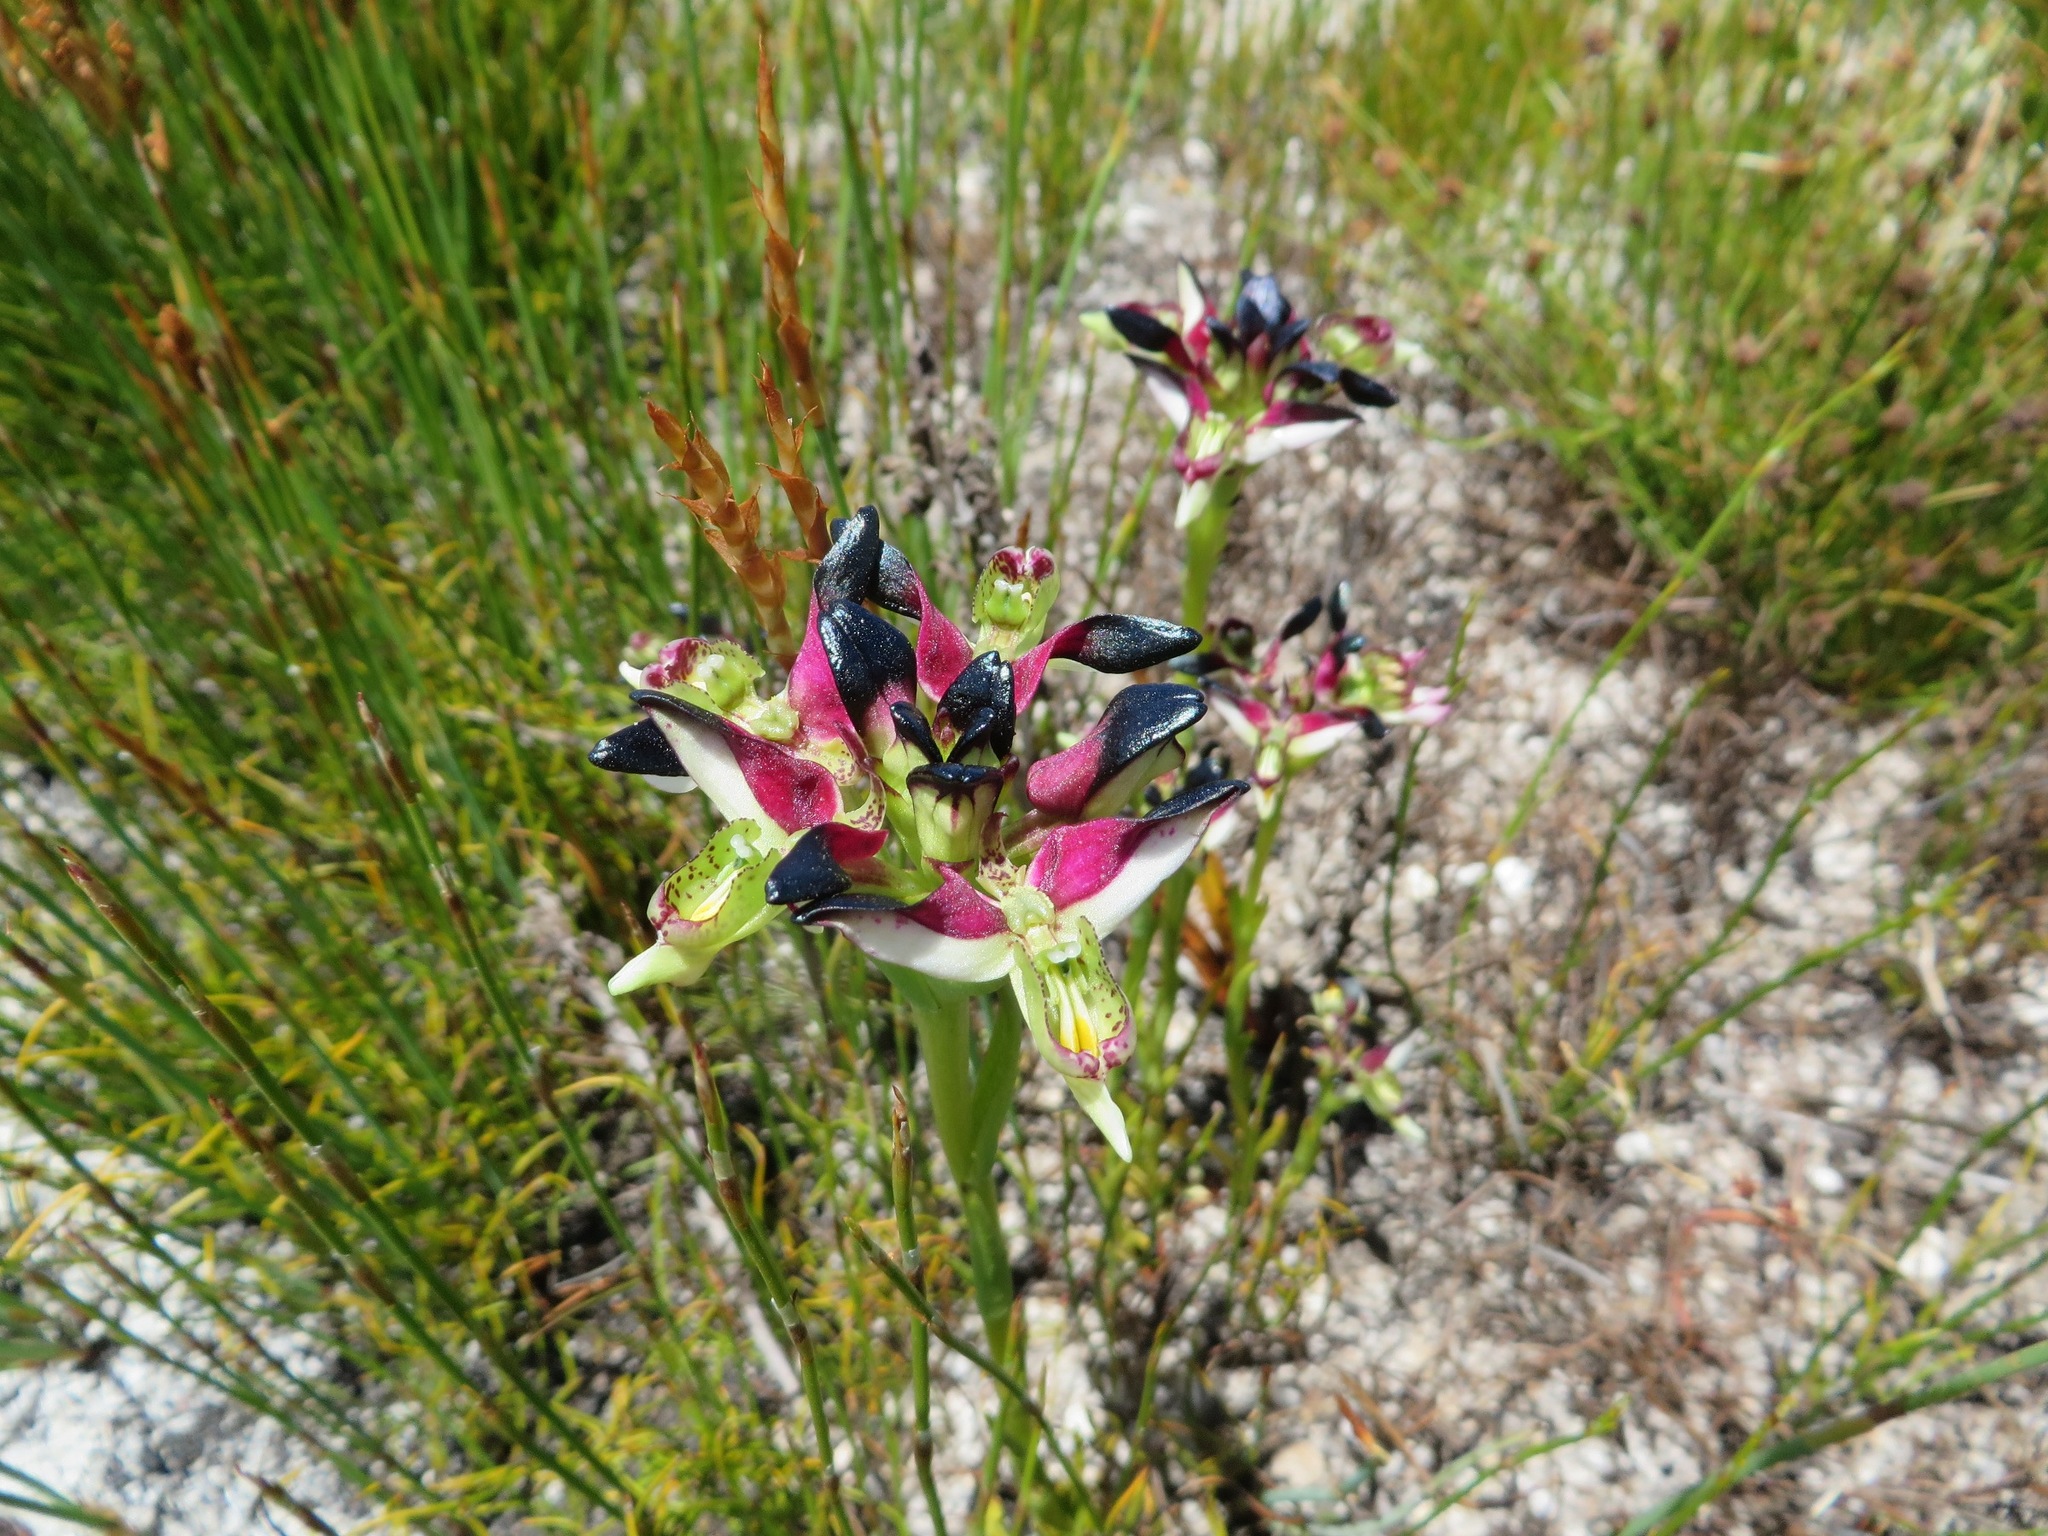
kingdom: Plantae
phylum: Tracheophyta
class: Liliopsida
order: Asparagales
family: Orchidaceae
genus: Disa
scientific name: Disa atricapilla
